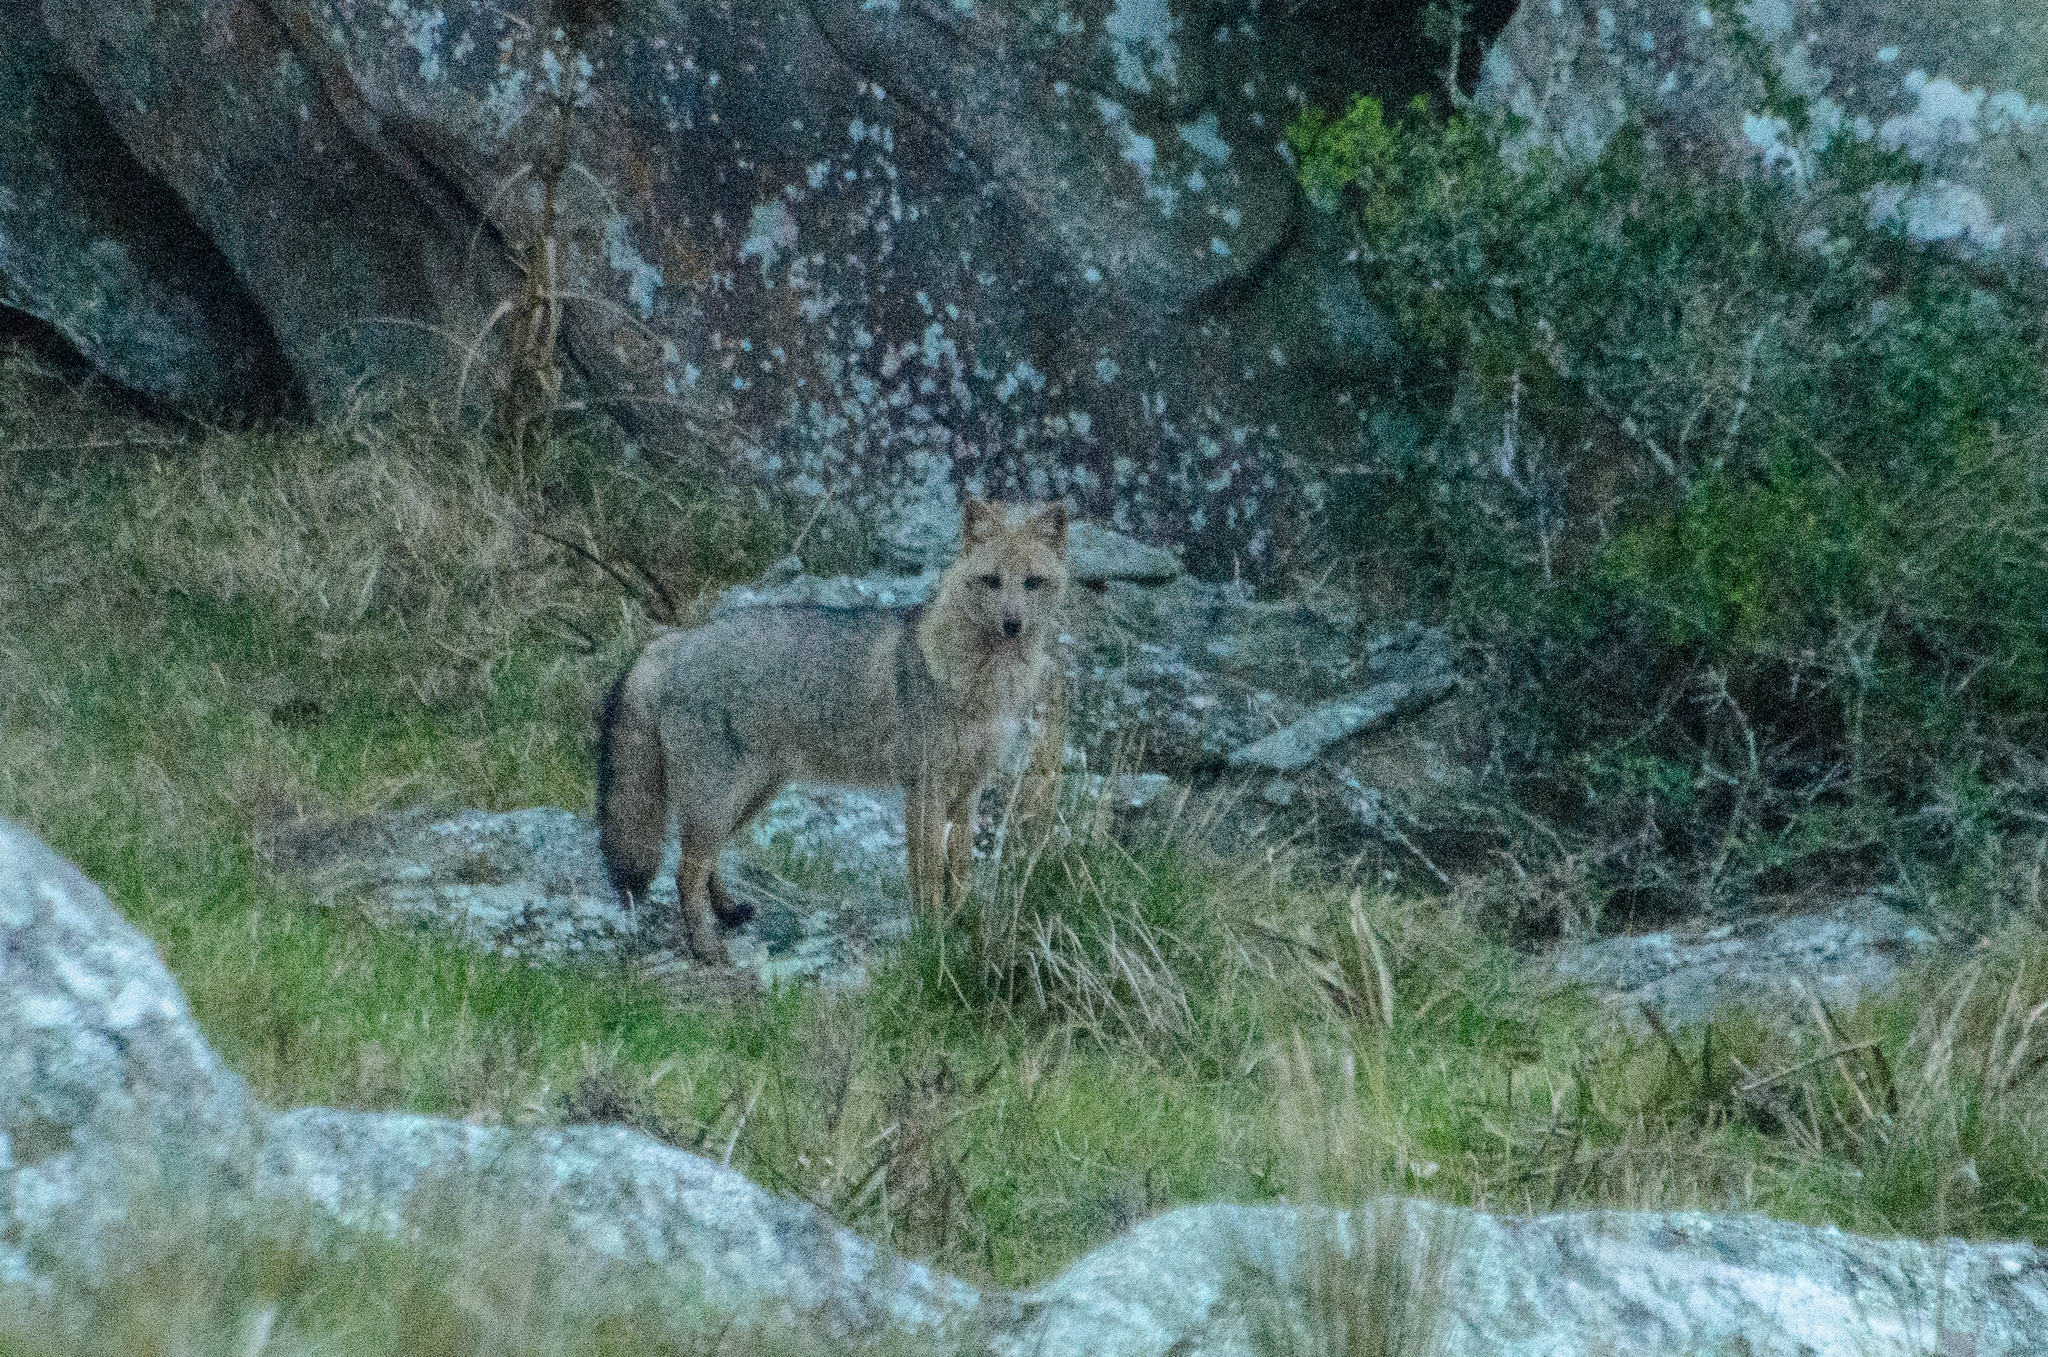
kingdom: Animalia
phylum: Chordata
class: Mammalia
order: Carnivora
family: Canidae
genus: Cerdocyon
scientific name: Cerdocyon thous
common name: Crab-eating fox
